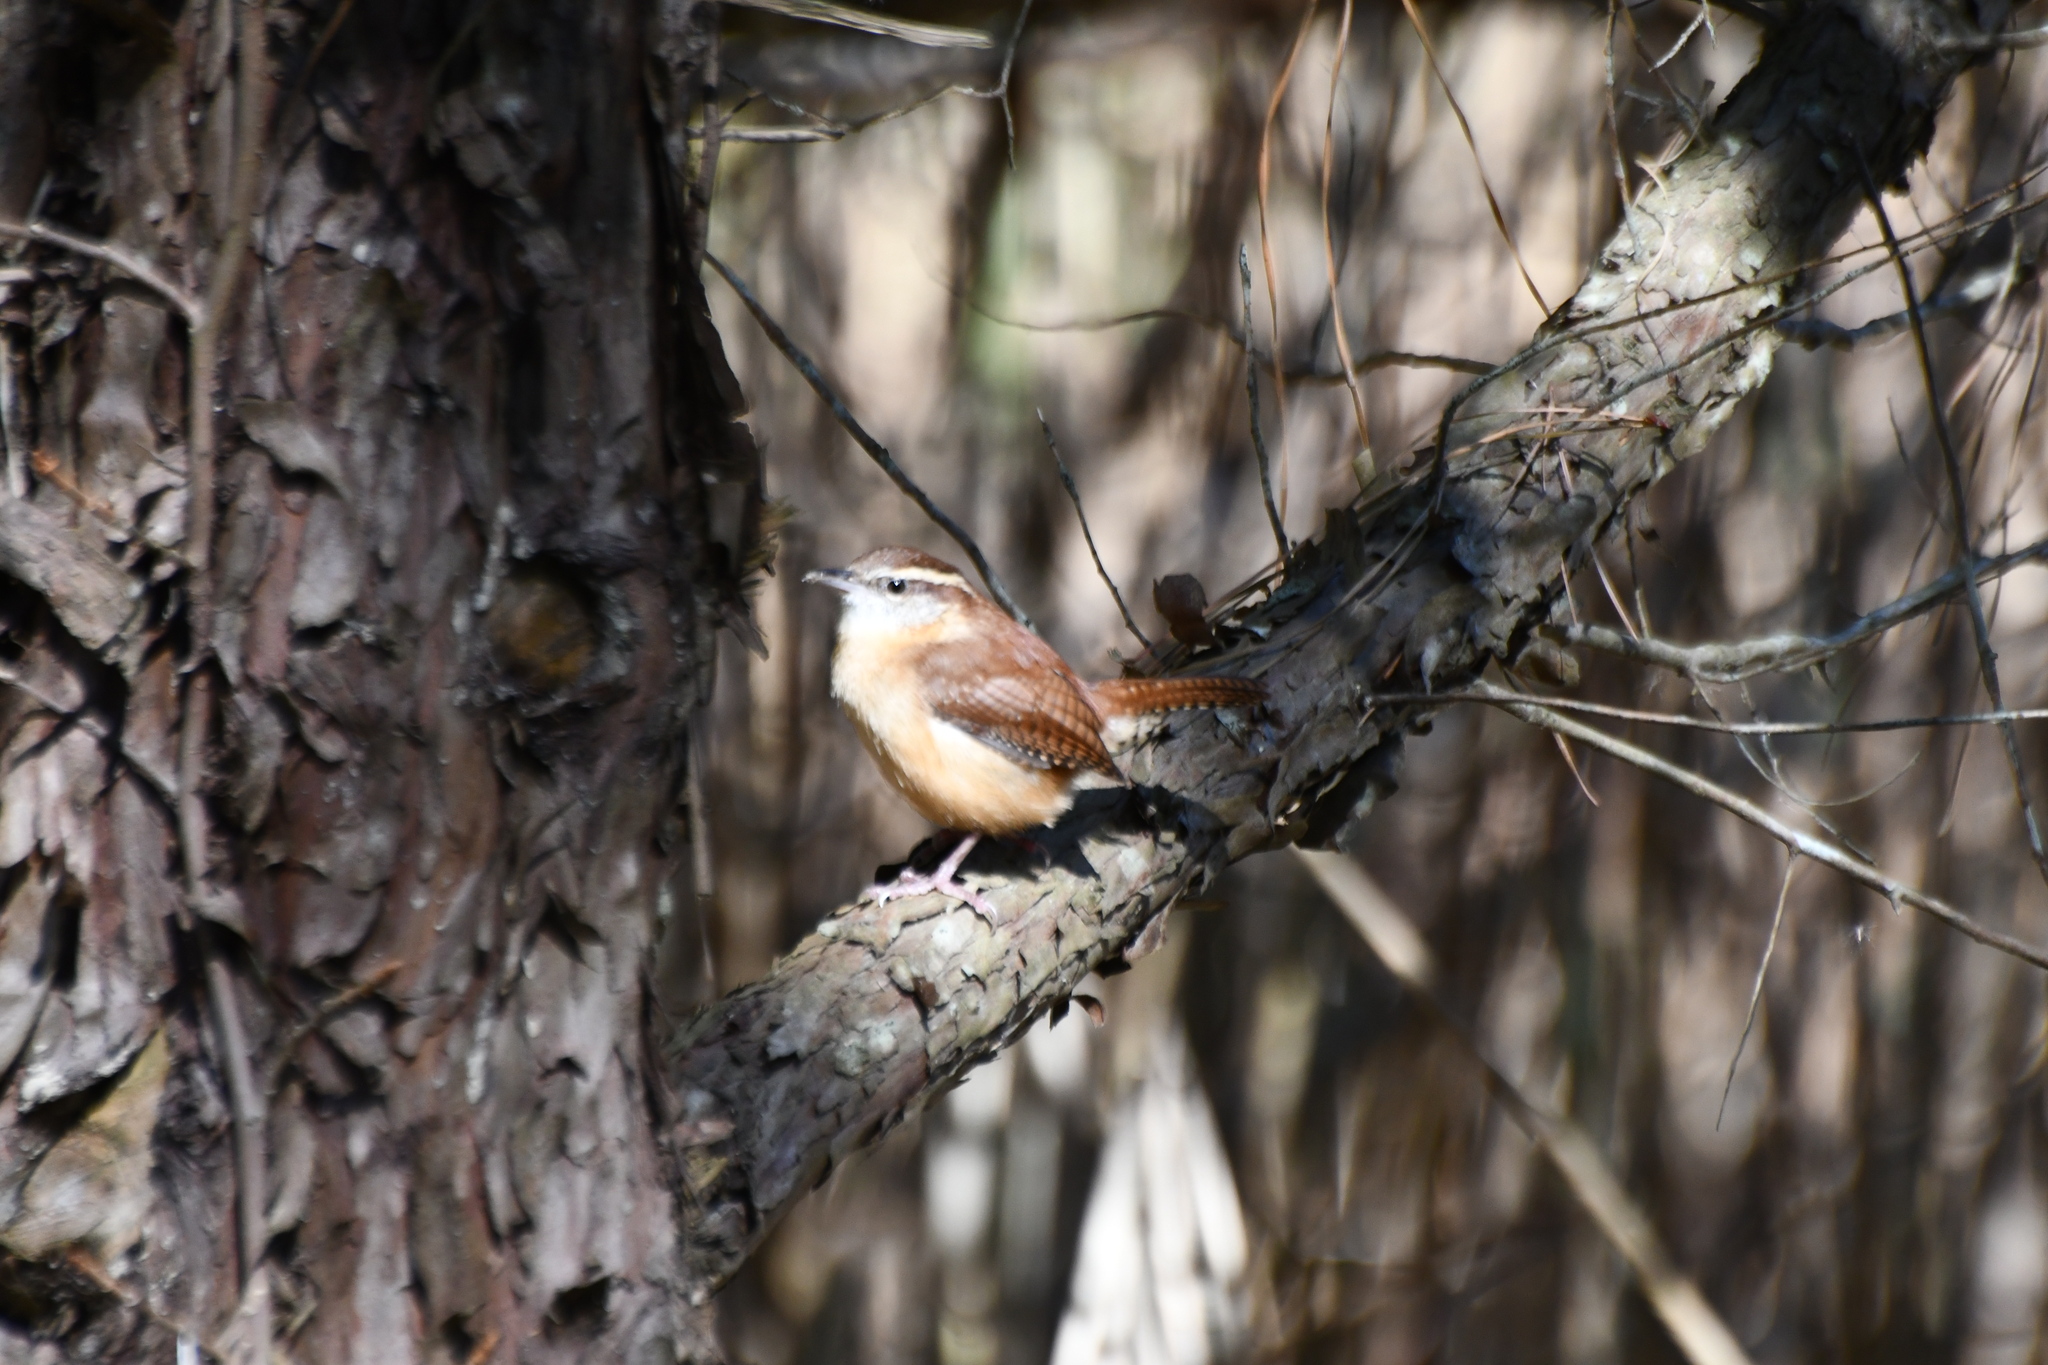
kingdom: Animalia
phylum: Chordata
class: Aves
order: Passeriformes
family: Troglodytidae
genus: Thryothorus
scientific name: Thryothorus ludovicianus
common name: Carolina wren
